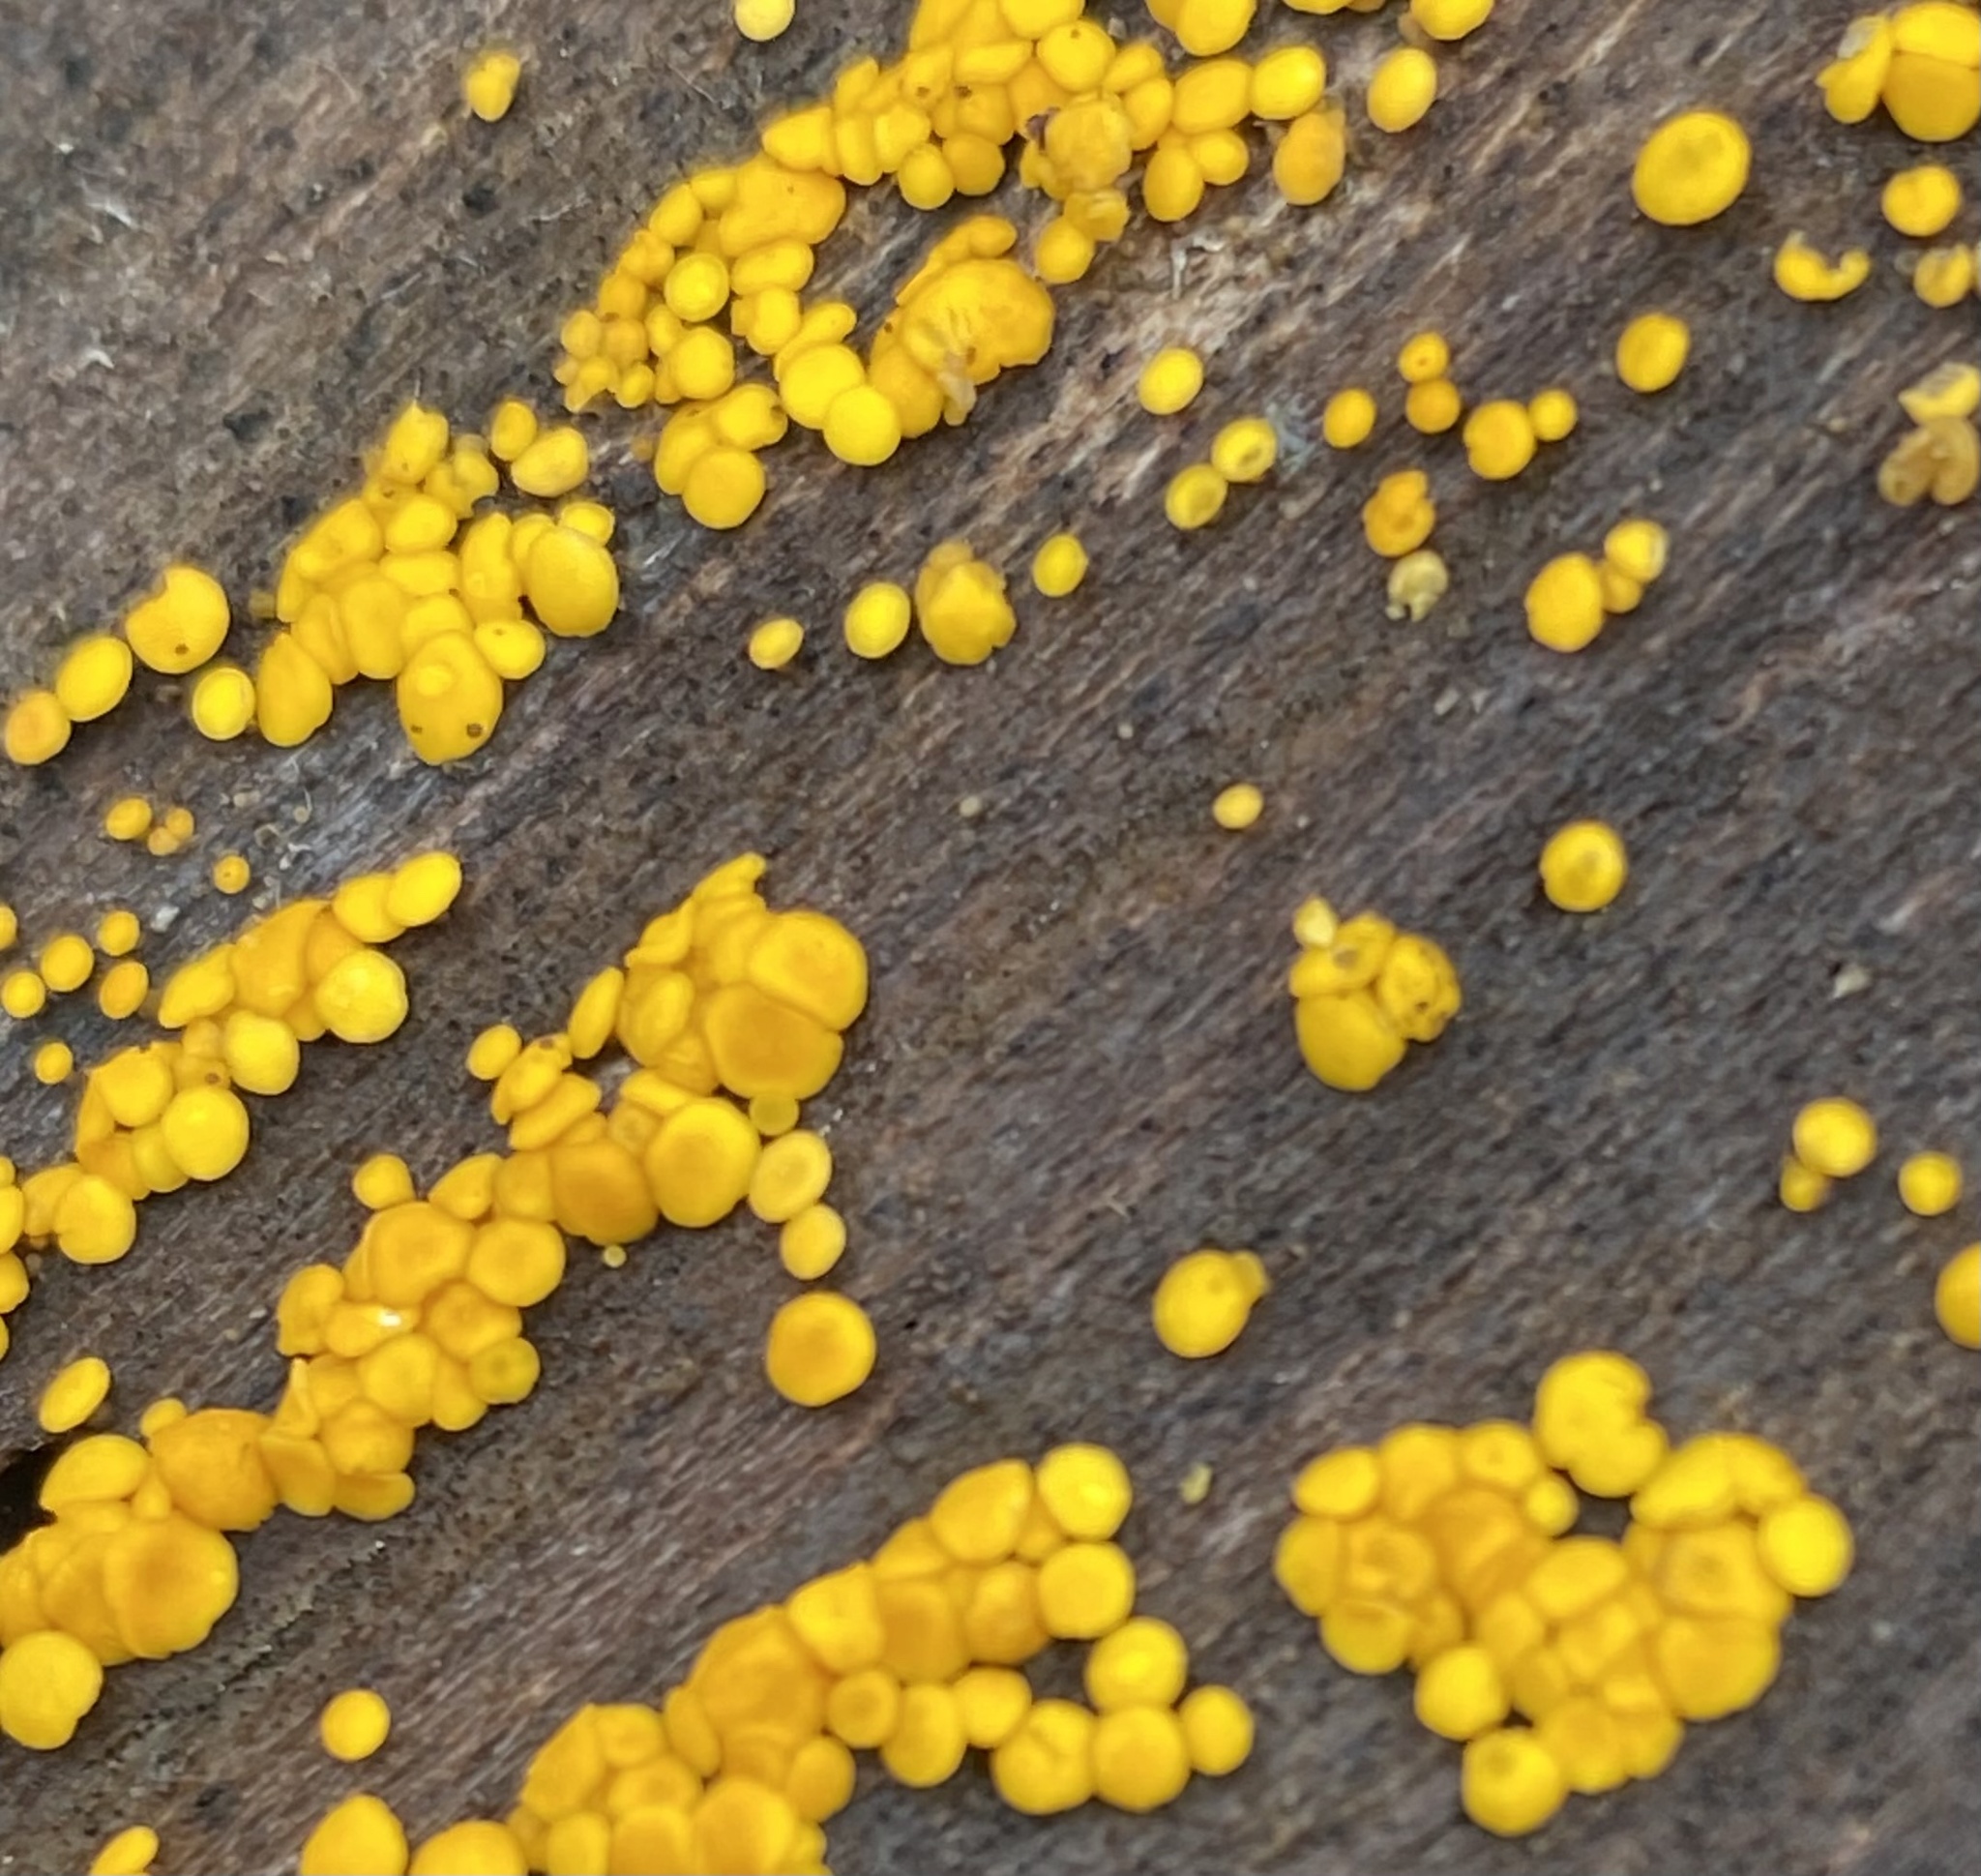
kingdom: Fungi
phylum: Ascomycota
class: Leotiomycetes
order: Helotiales
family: Pezizellaceae
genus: Calycina
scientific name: Calycina citrina
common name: Yellow fairy cups
